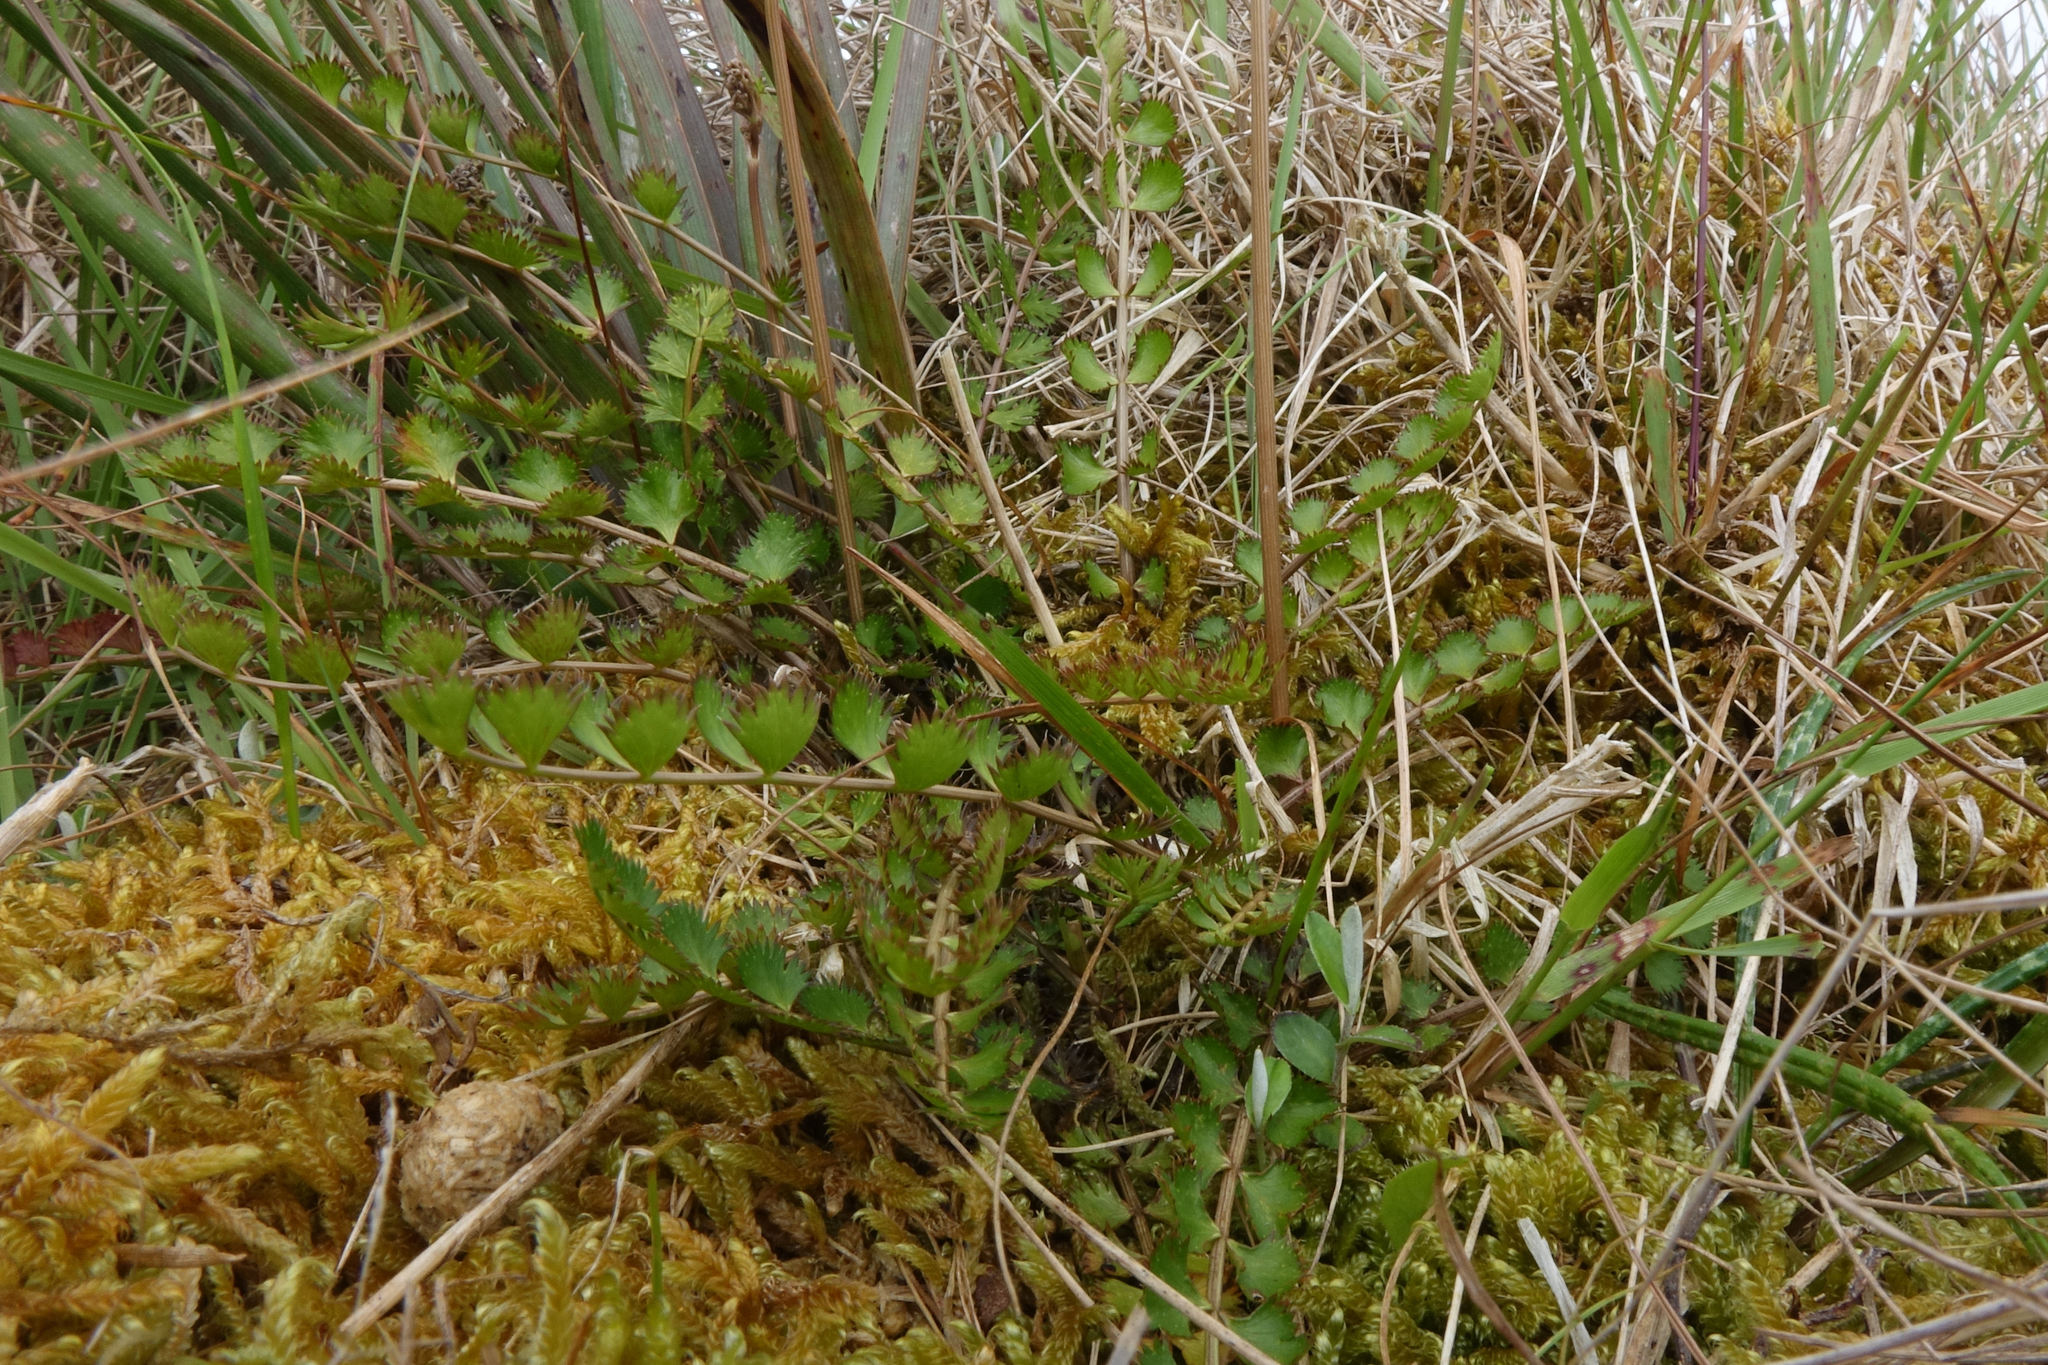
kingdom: Plantae
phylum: Tracheophyta
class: Magnoliopsida
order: Apiales
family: Apiaceae
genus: Anisotome
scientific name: Anisotome aromatica
